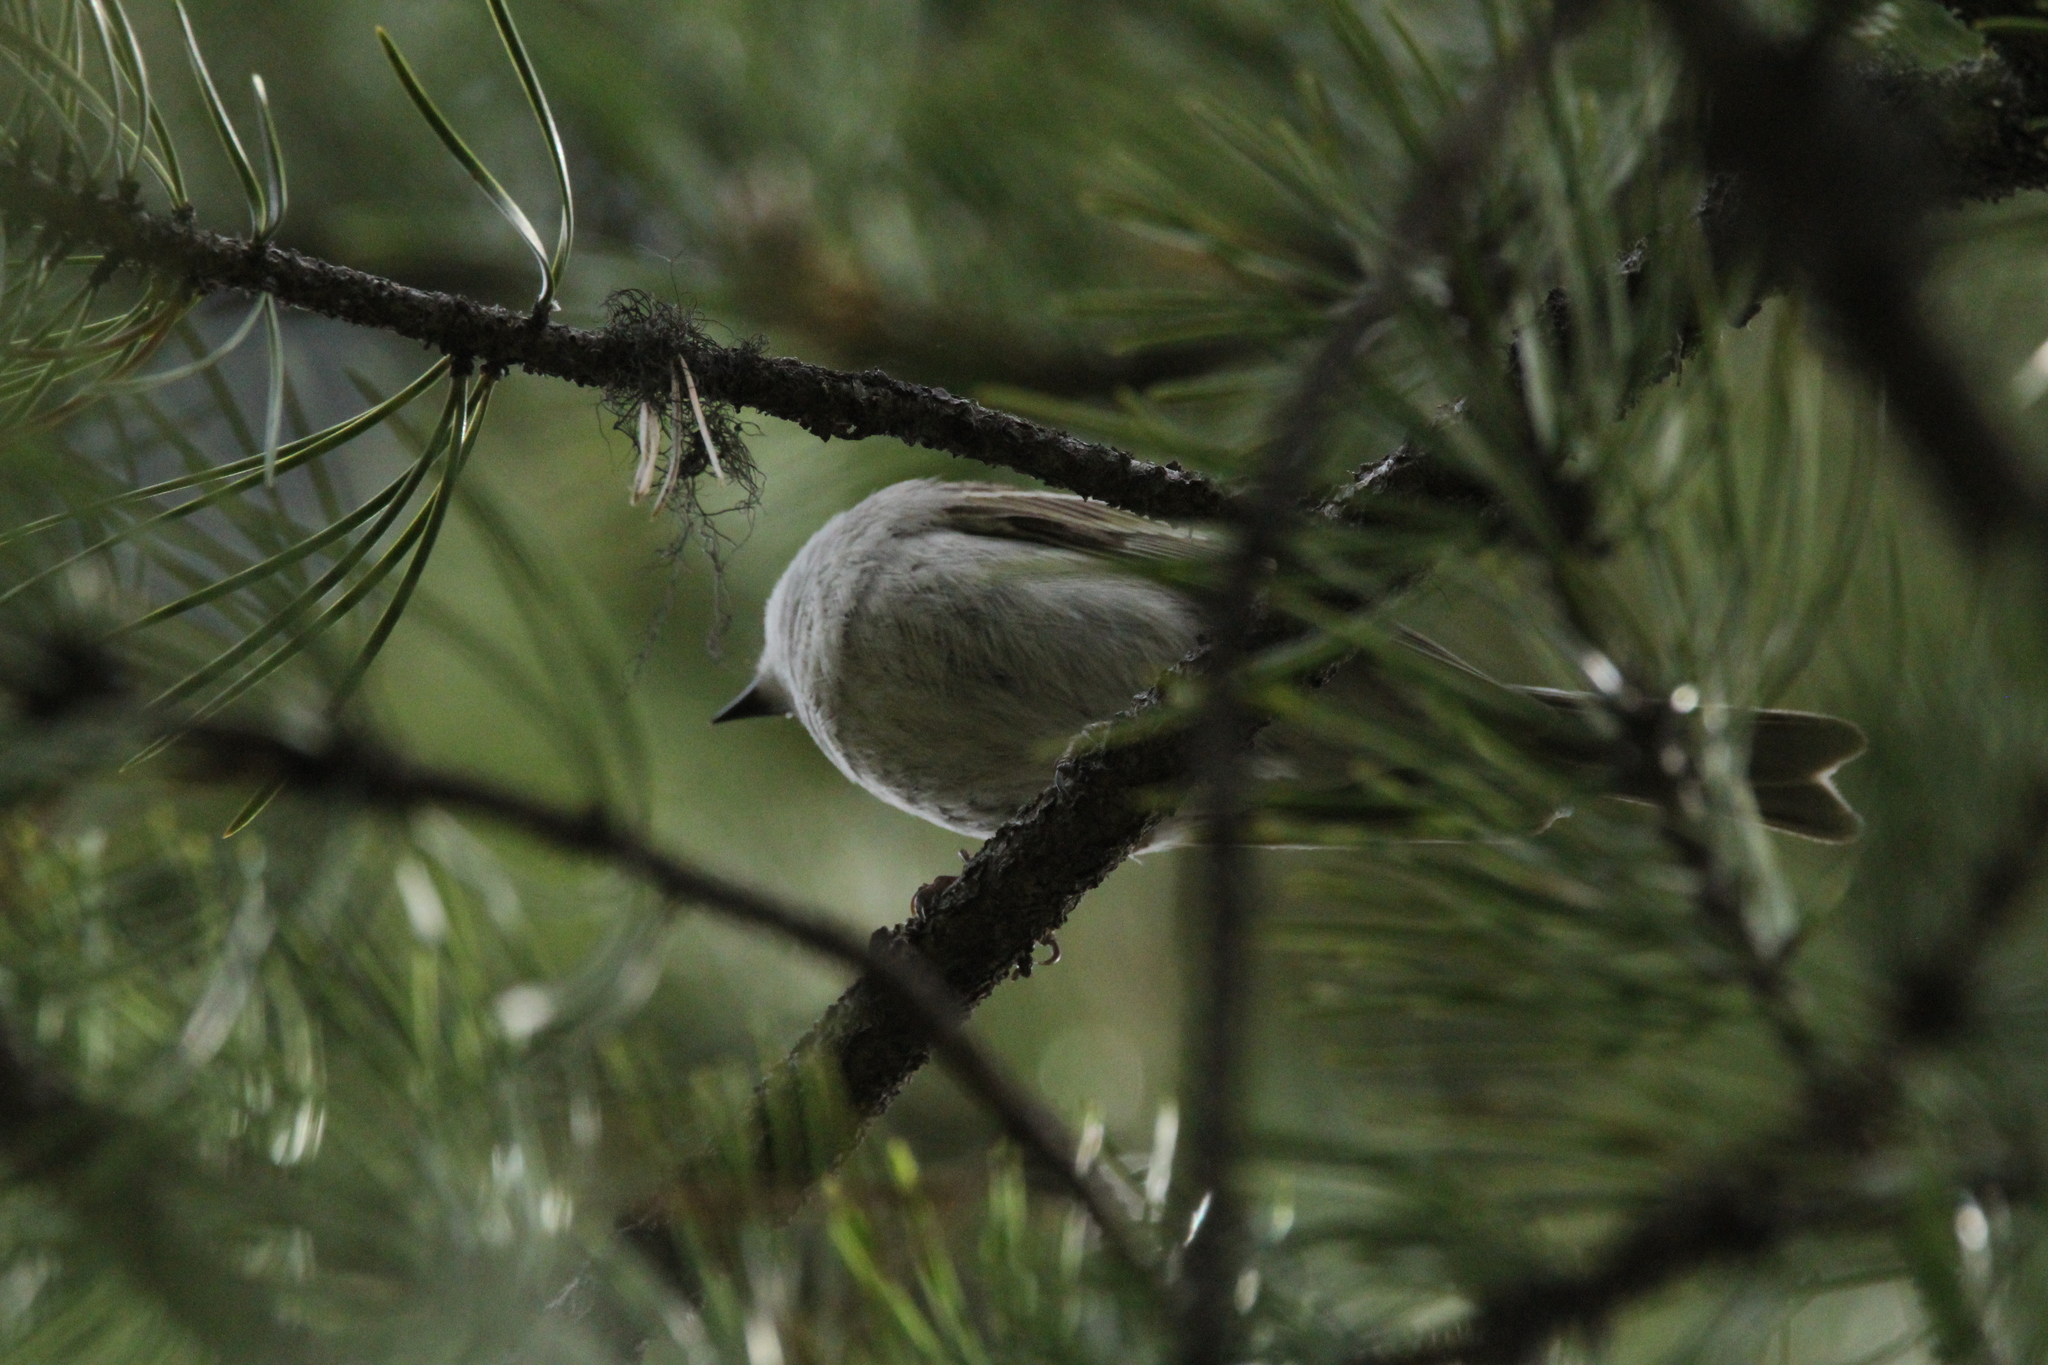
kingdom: Animalia
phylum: Chordata
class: Aves
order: Passeriformes
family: Turdidae
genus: Myadestes
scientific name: Myadestes townsendi
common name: Townsend's solitaire
